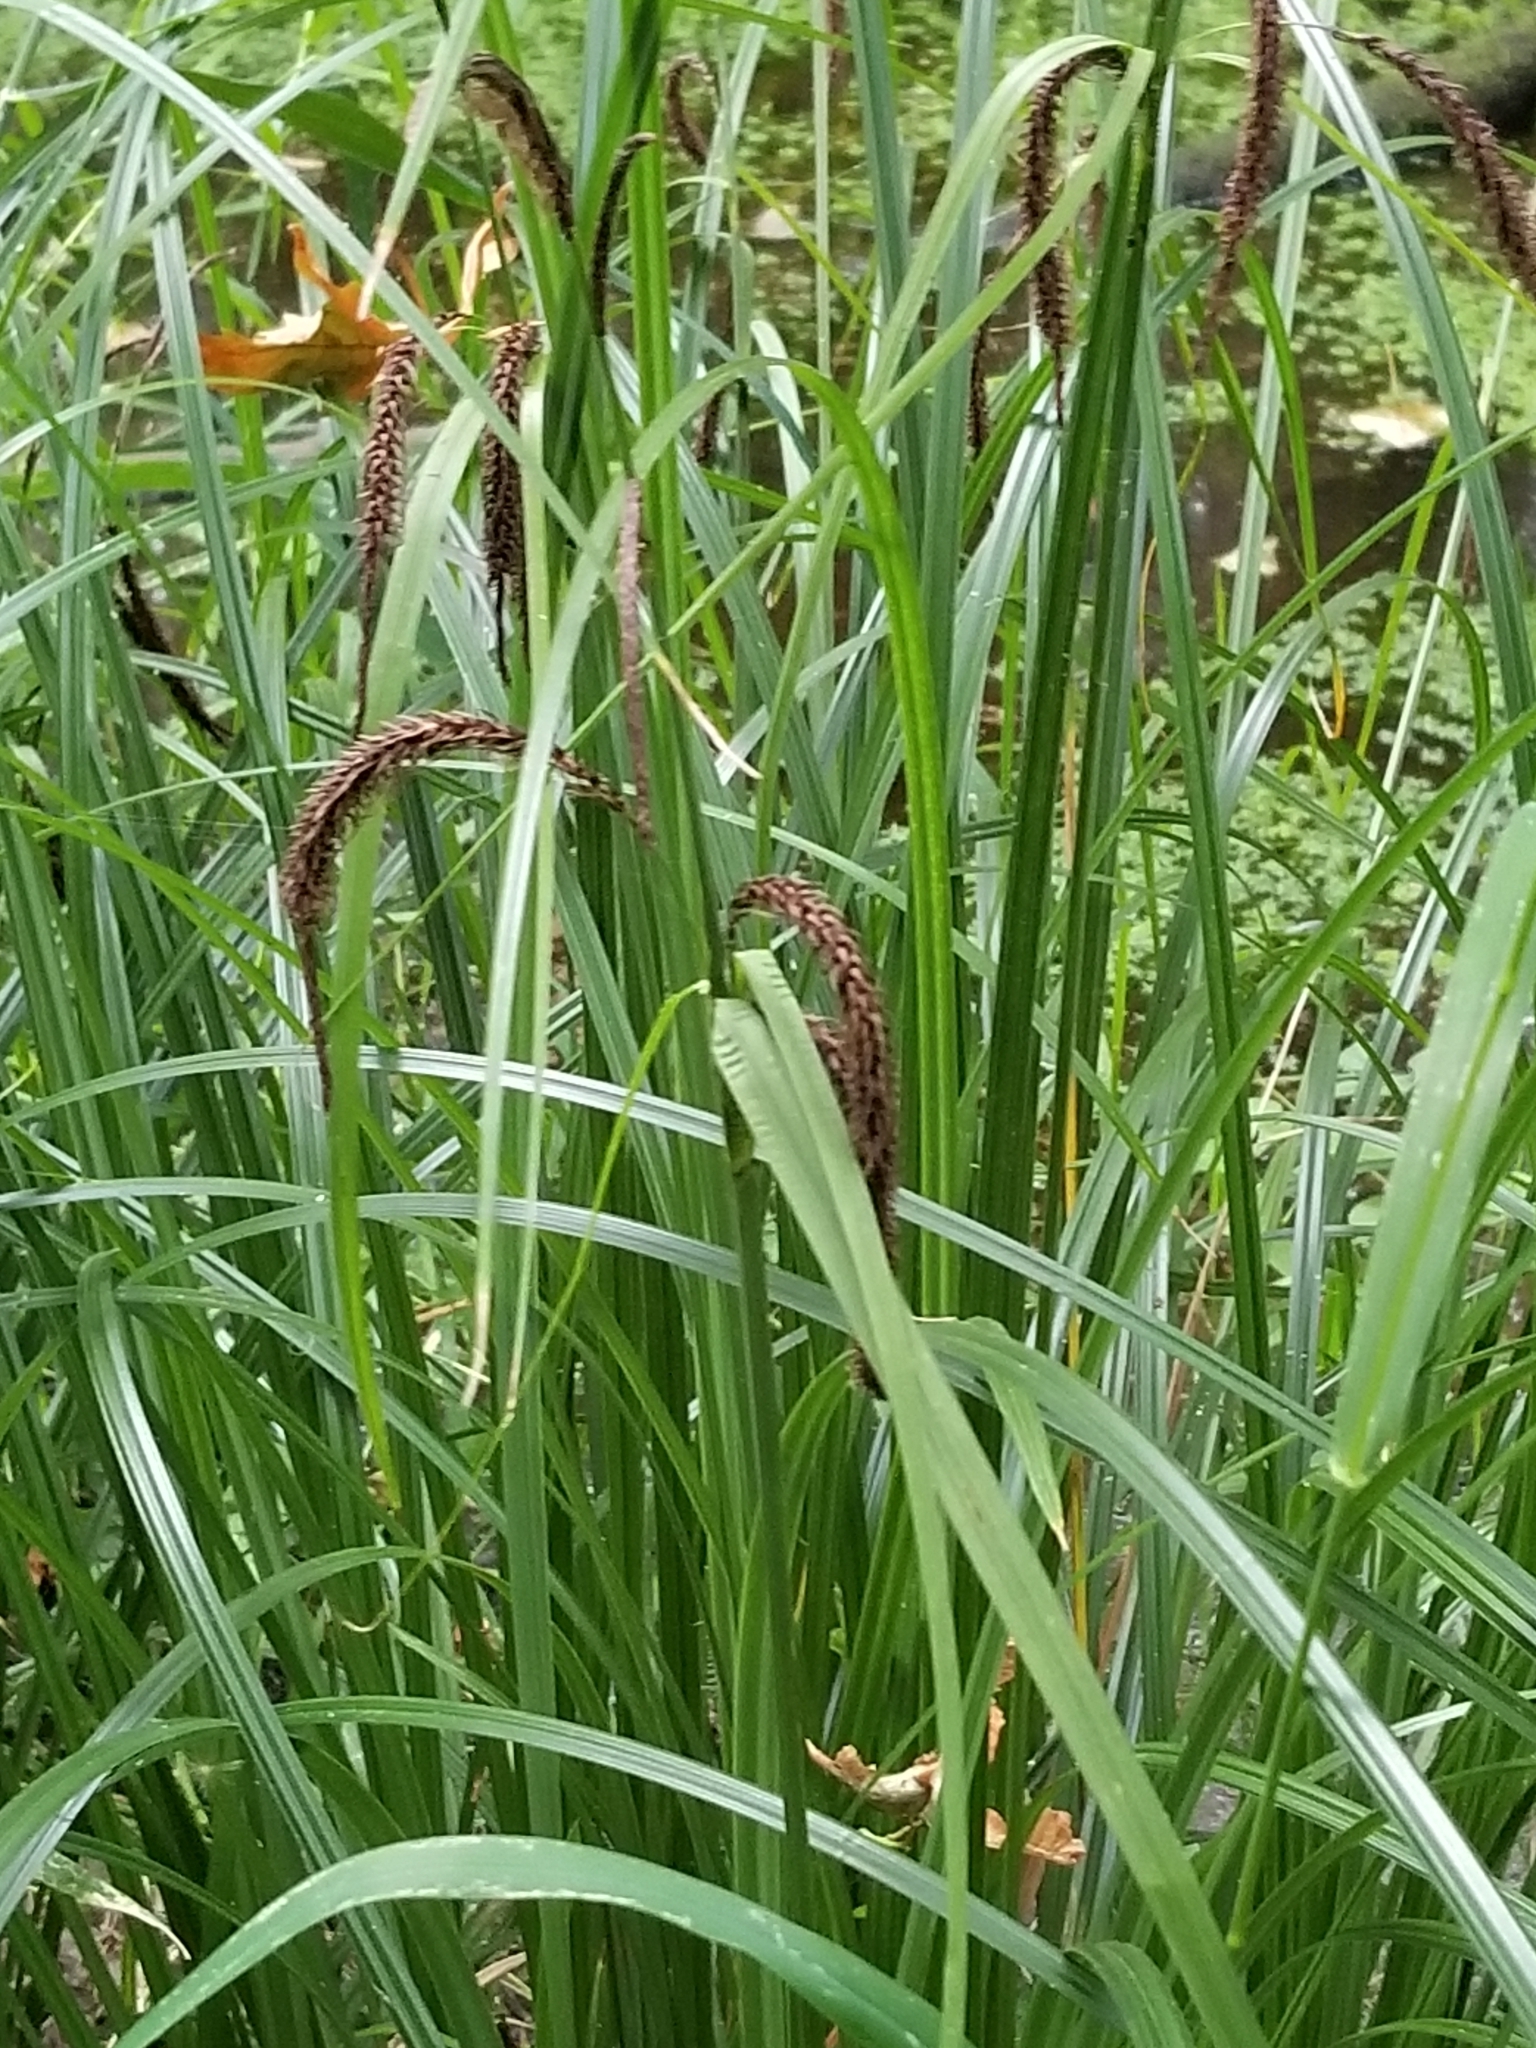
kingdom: Plantae
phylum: Tracheophyta
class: Liliopsida
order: Poales
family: Cyperaceae
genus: Carex
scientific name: Carex obnupta
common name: Slough sedge
